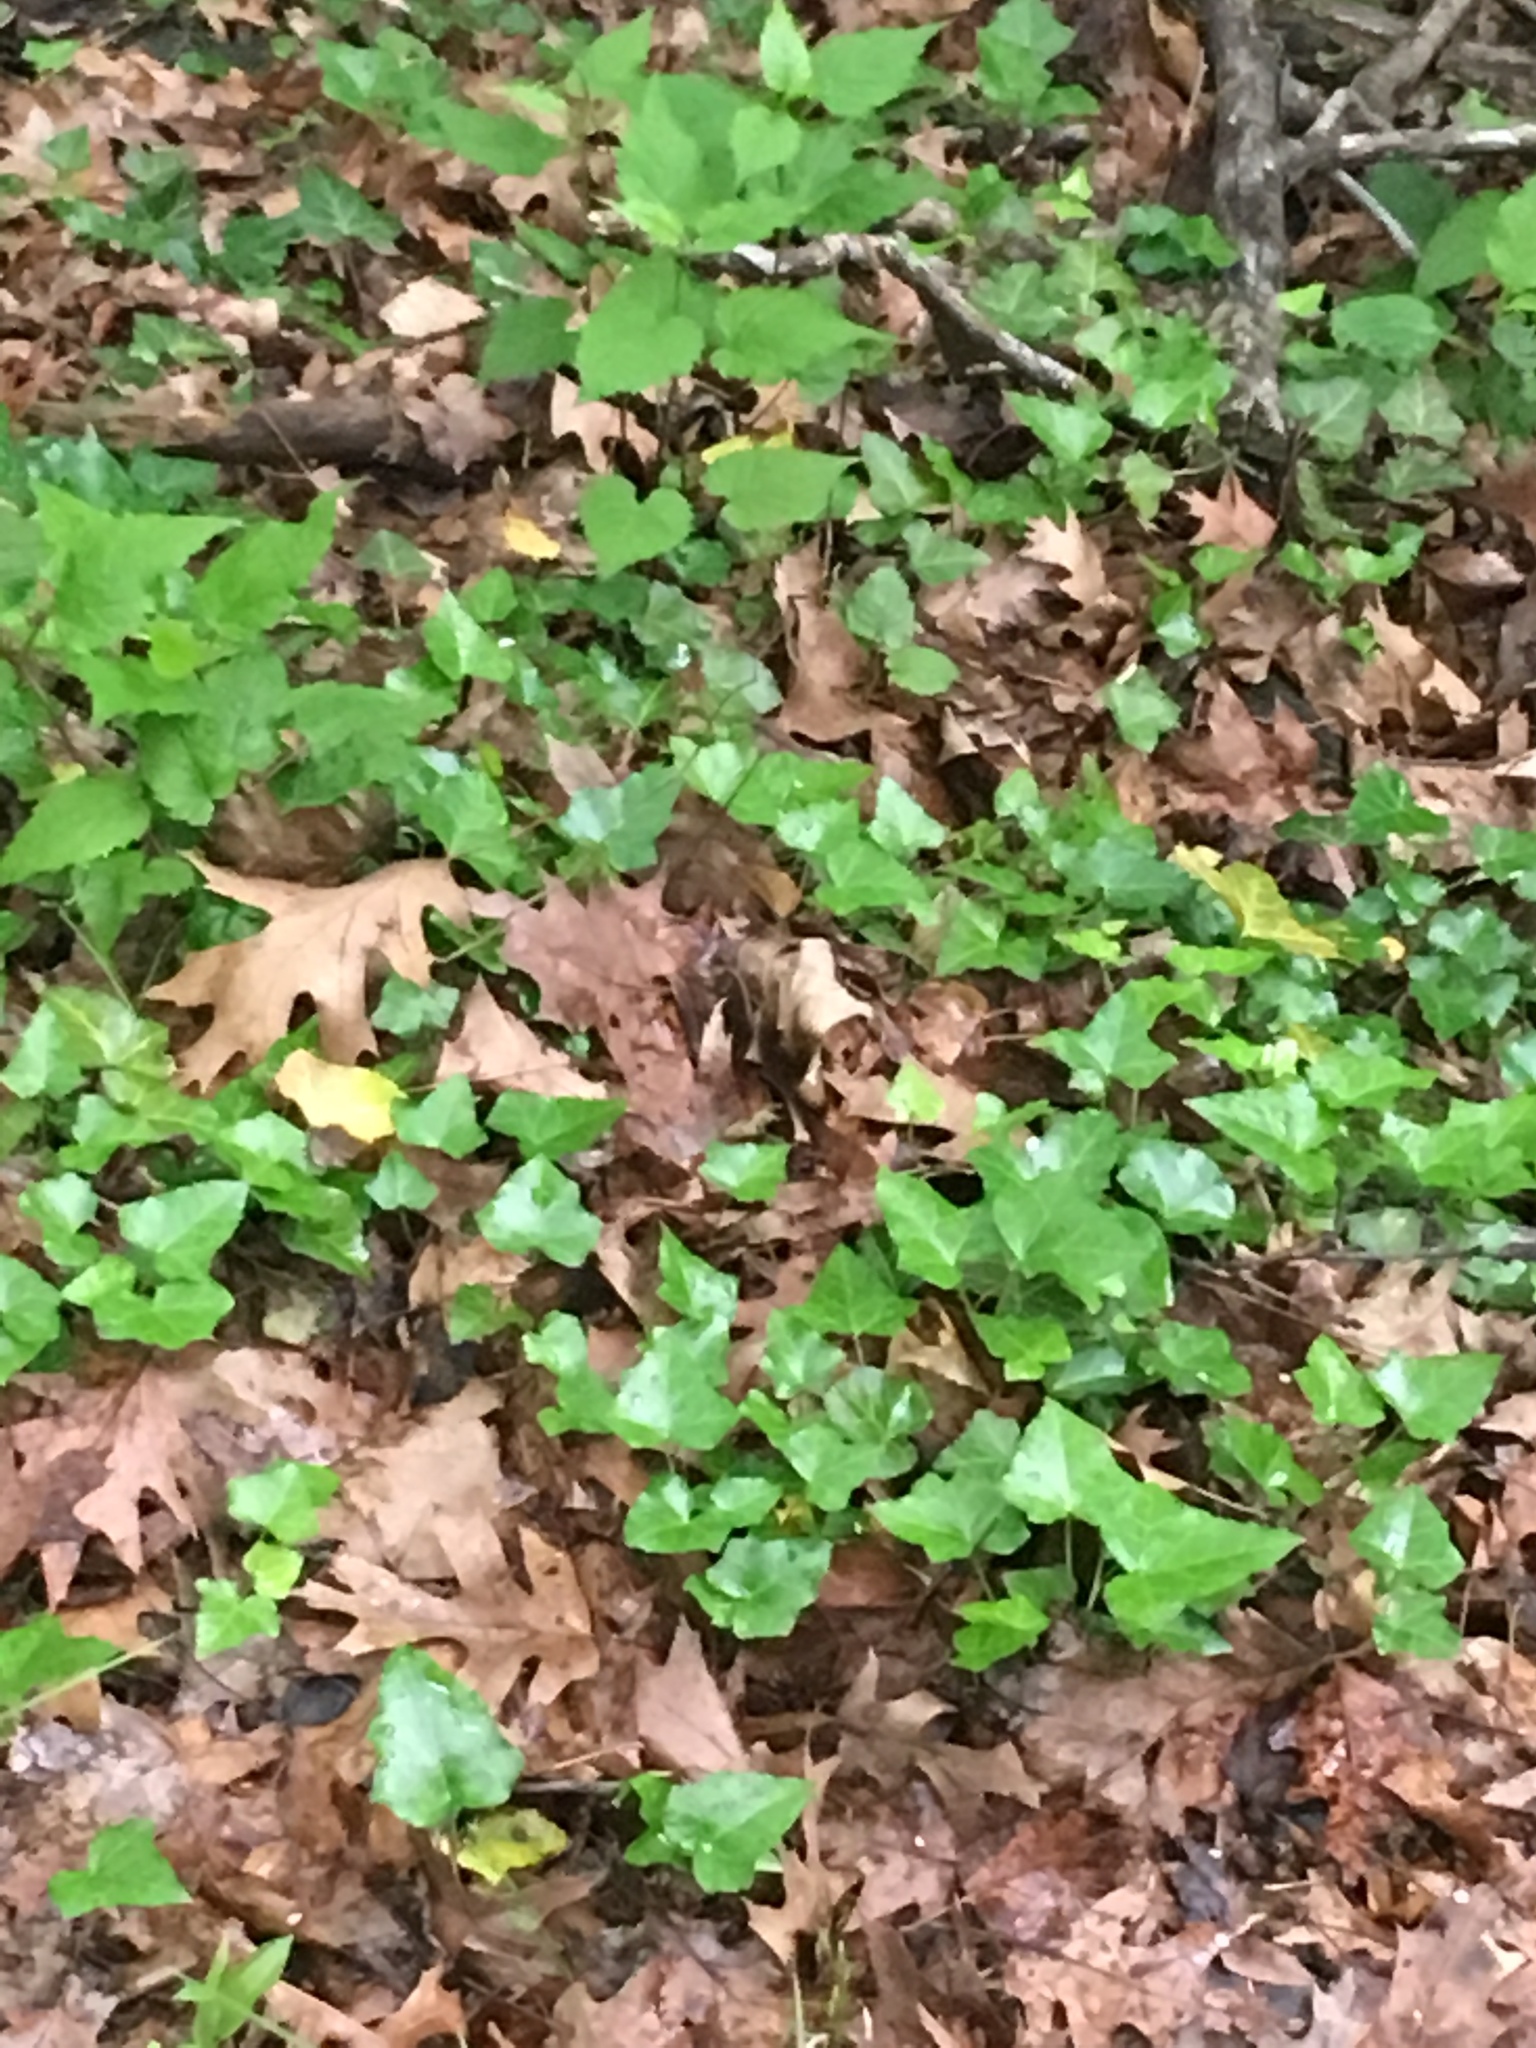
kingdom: Plantae
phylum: Tracheophyta
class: Magnoliopsida
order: Apiales
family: Araliaceae
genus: Hedera
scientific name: Hedera helix
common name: Ivy
